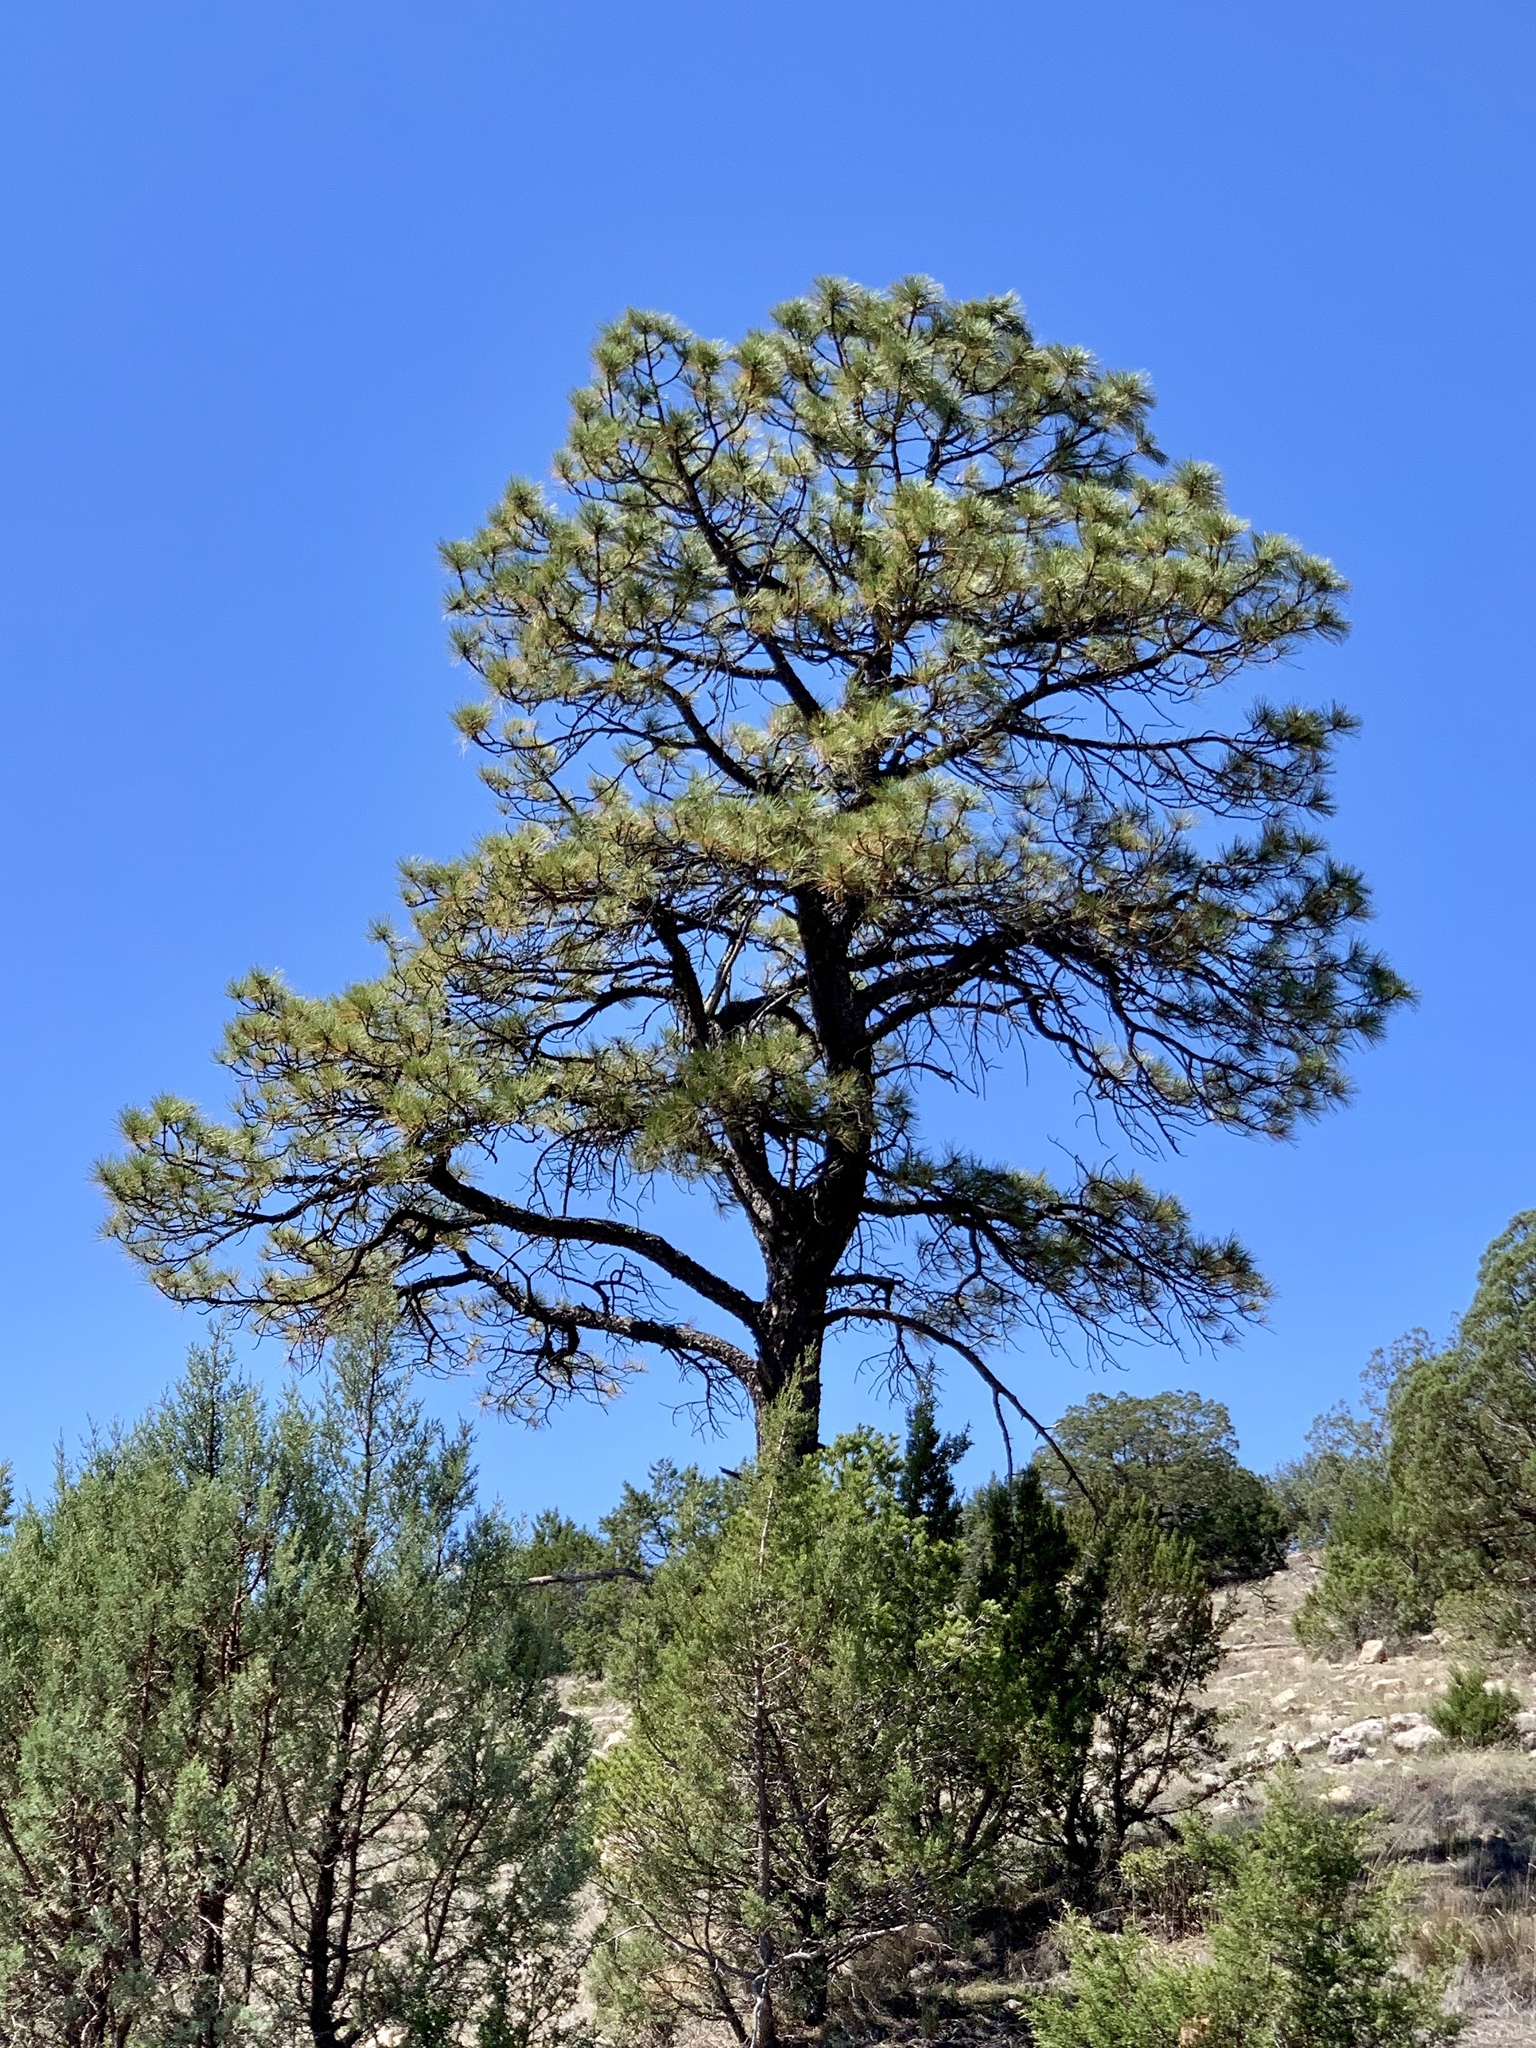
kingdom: Plantae
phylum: Tracheophyta
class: Pinopsida
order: Pinales
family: Pinaceae
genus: Pinus
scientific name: Pinus ponderosa
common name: Western yellow-pine
